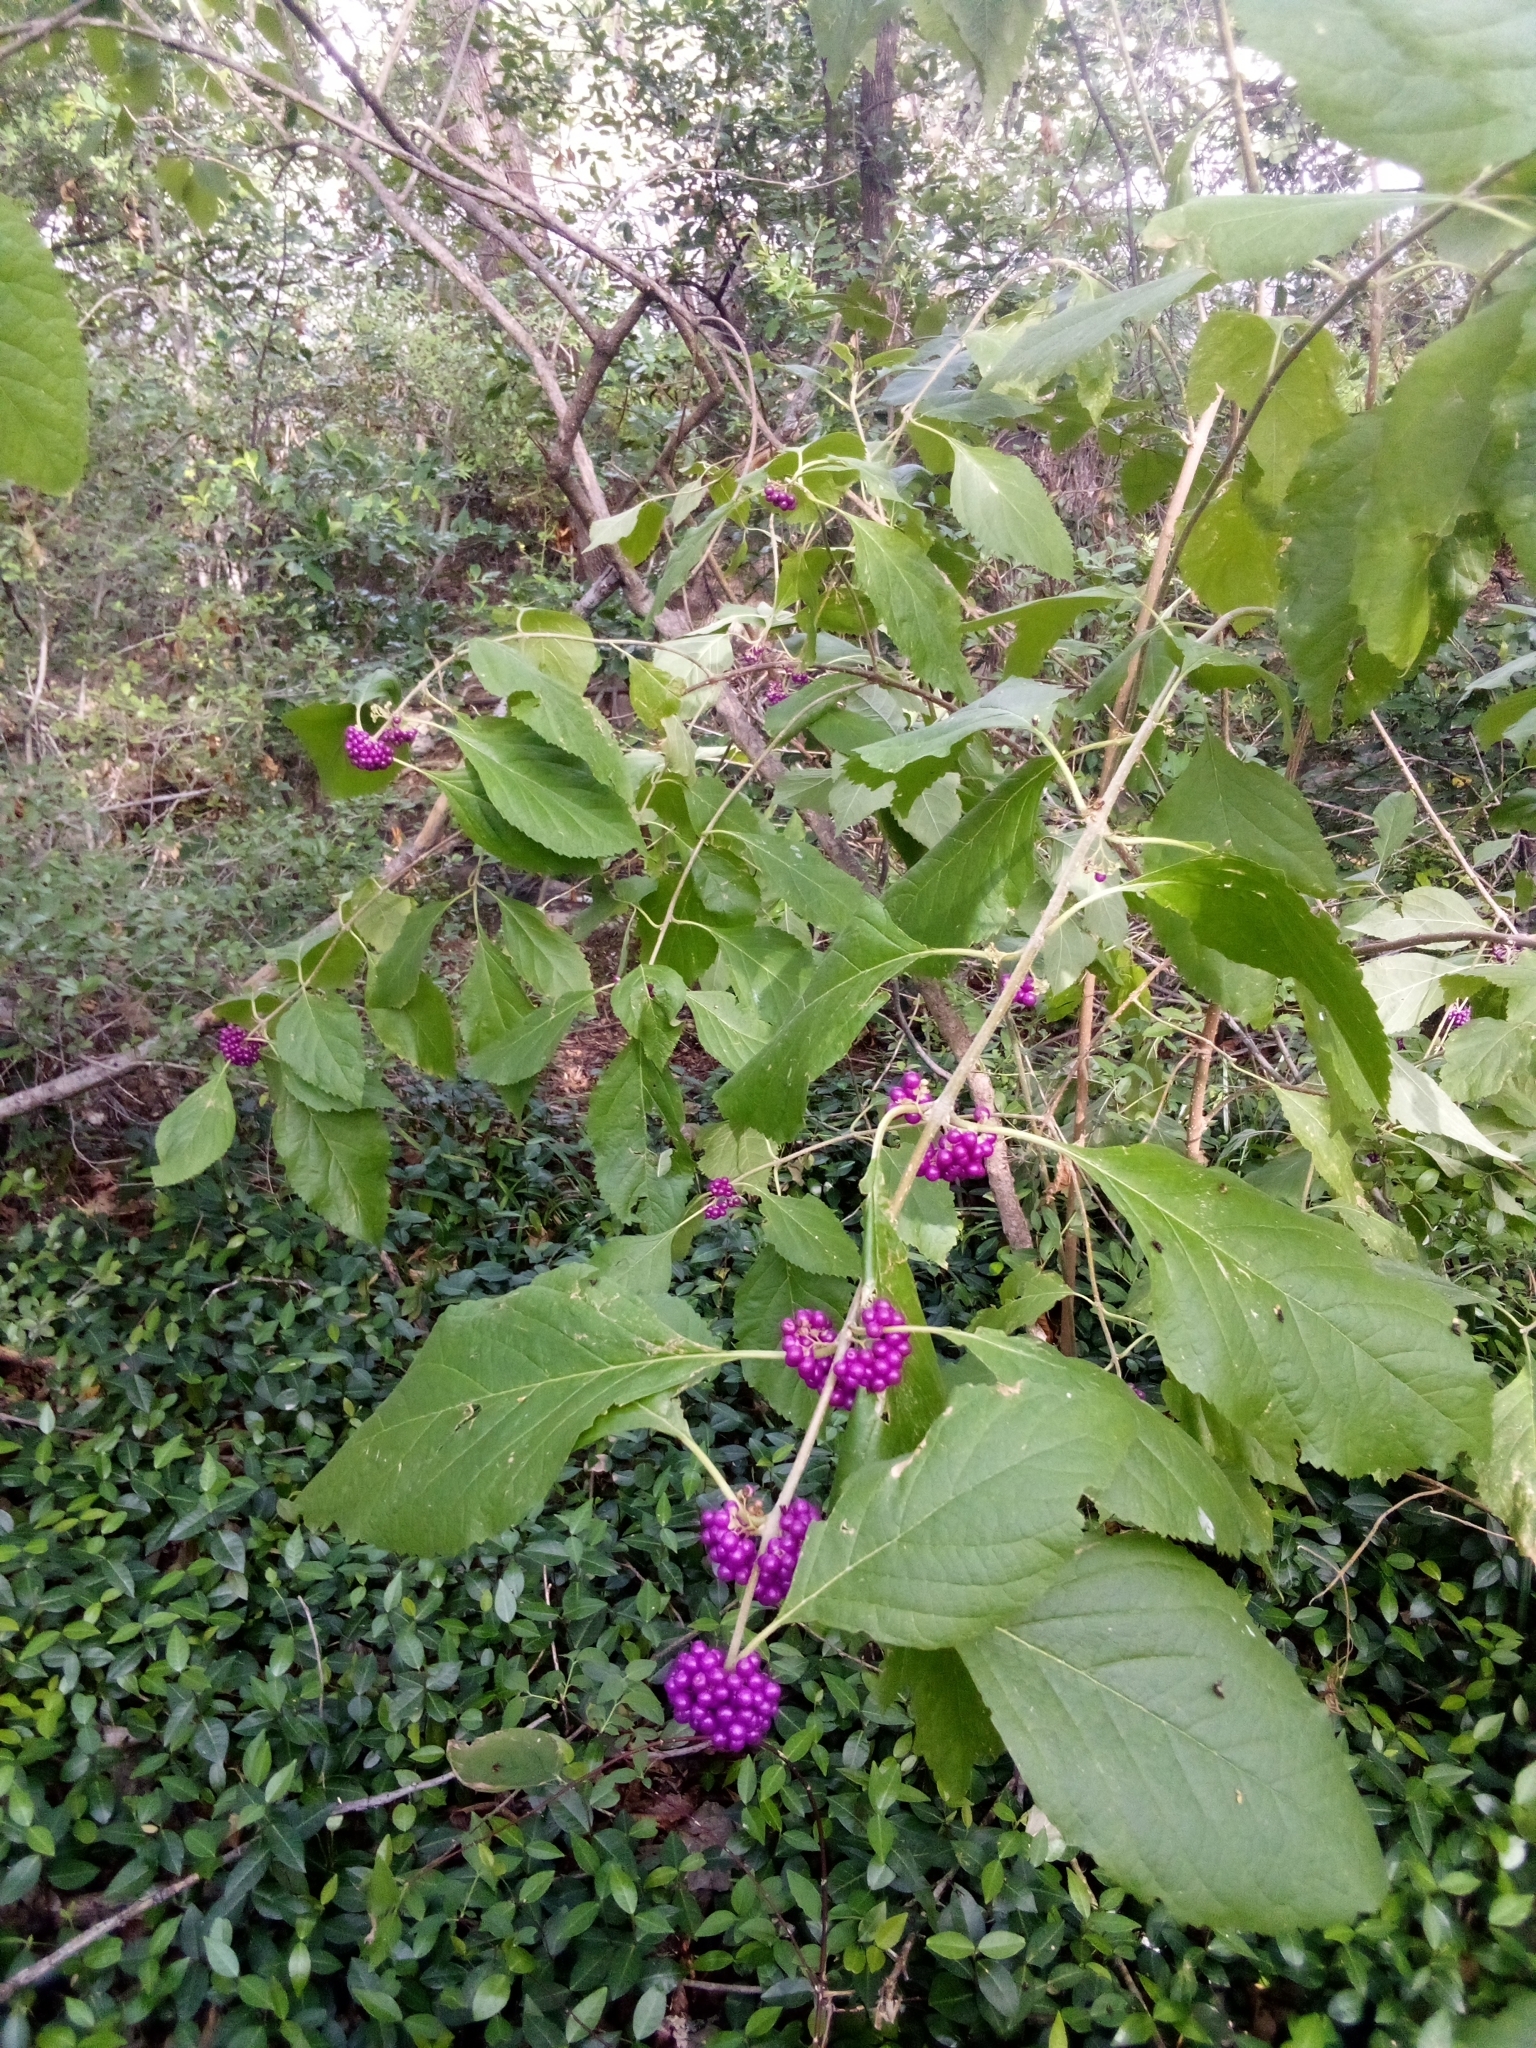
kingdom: Plantae
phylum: Tracheophyta
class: Magnoliopsida
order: Lamiales
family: Lamiaceae
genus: Callicarpa
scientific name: Callicarpa americana
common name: American beautyberry
